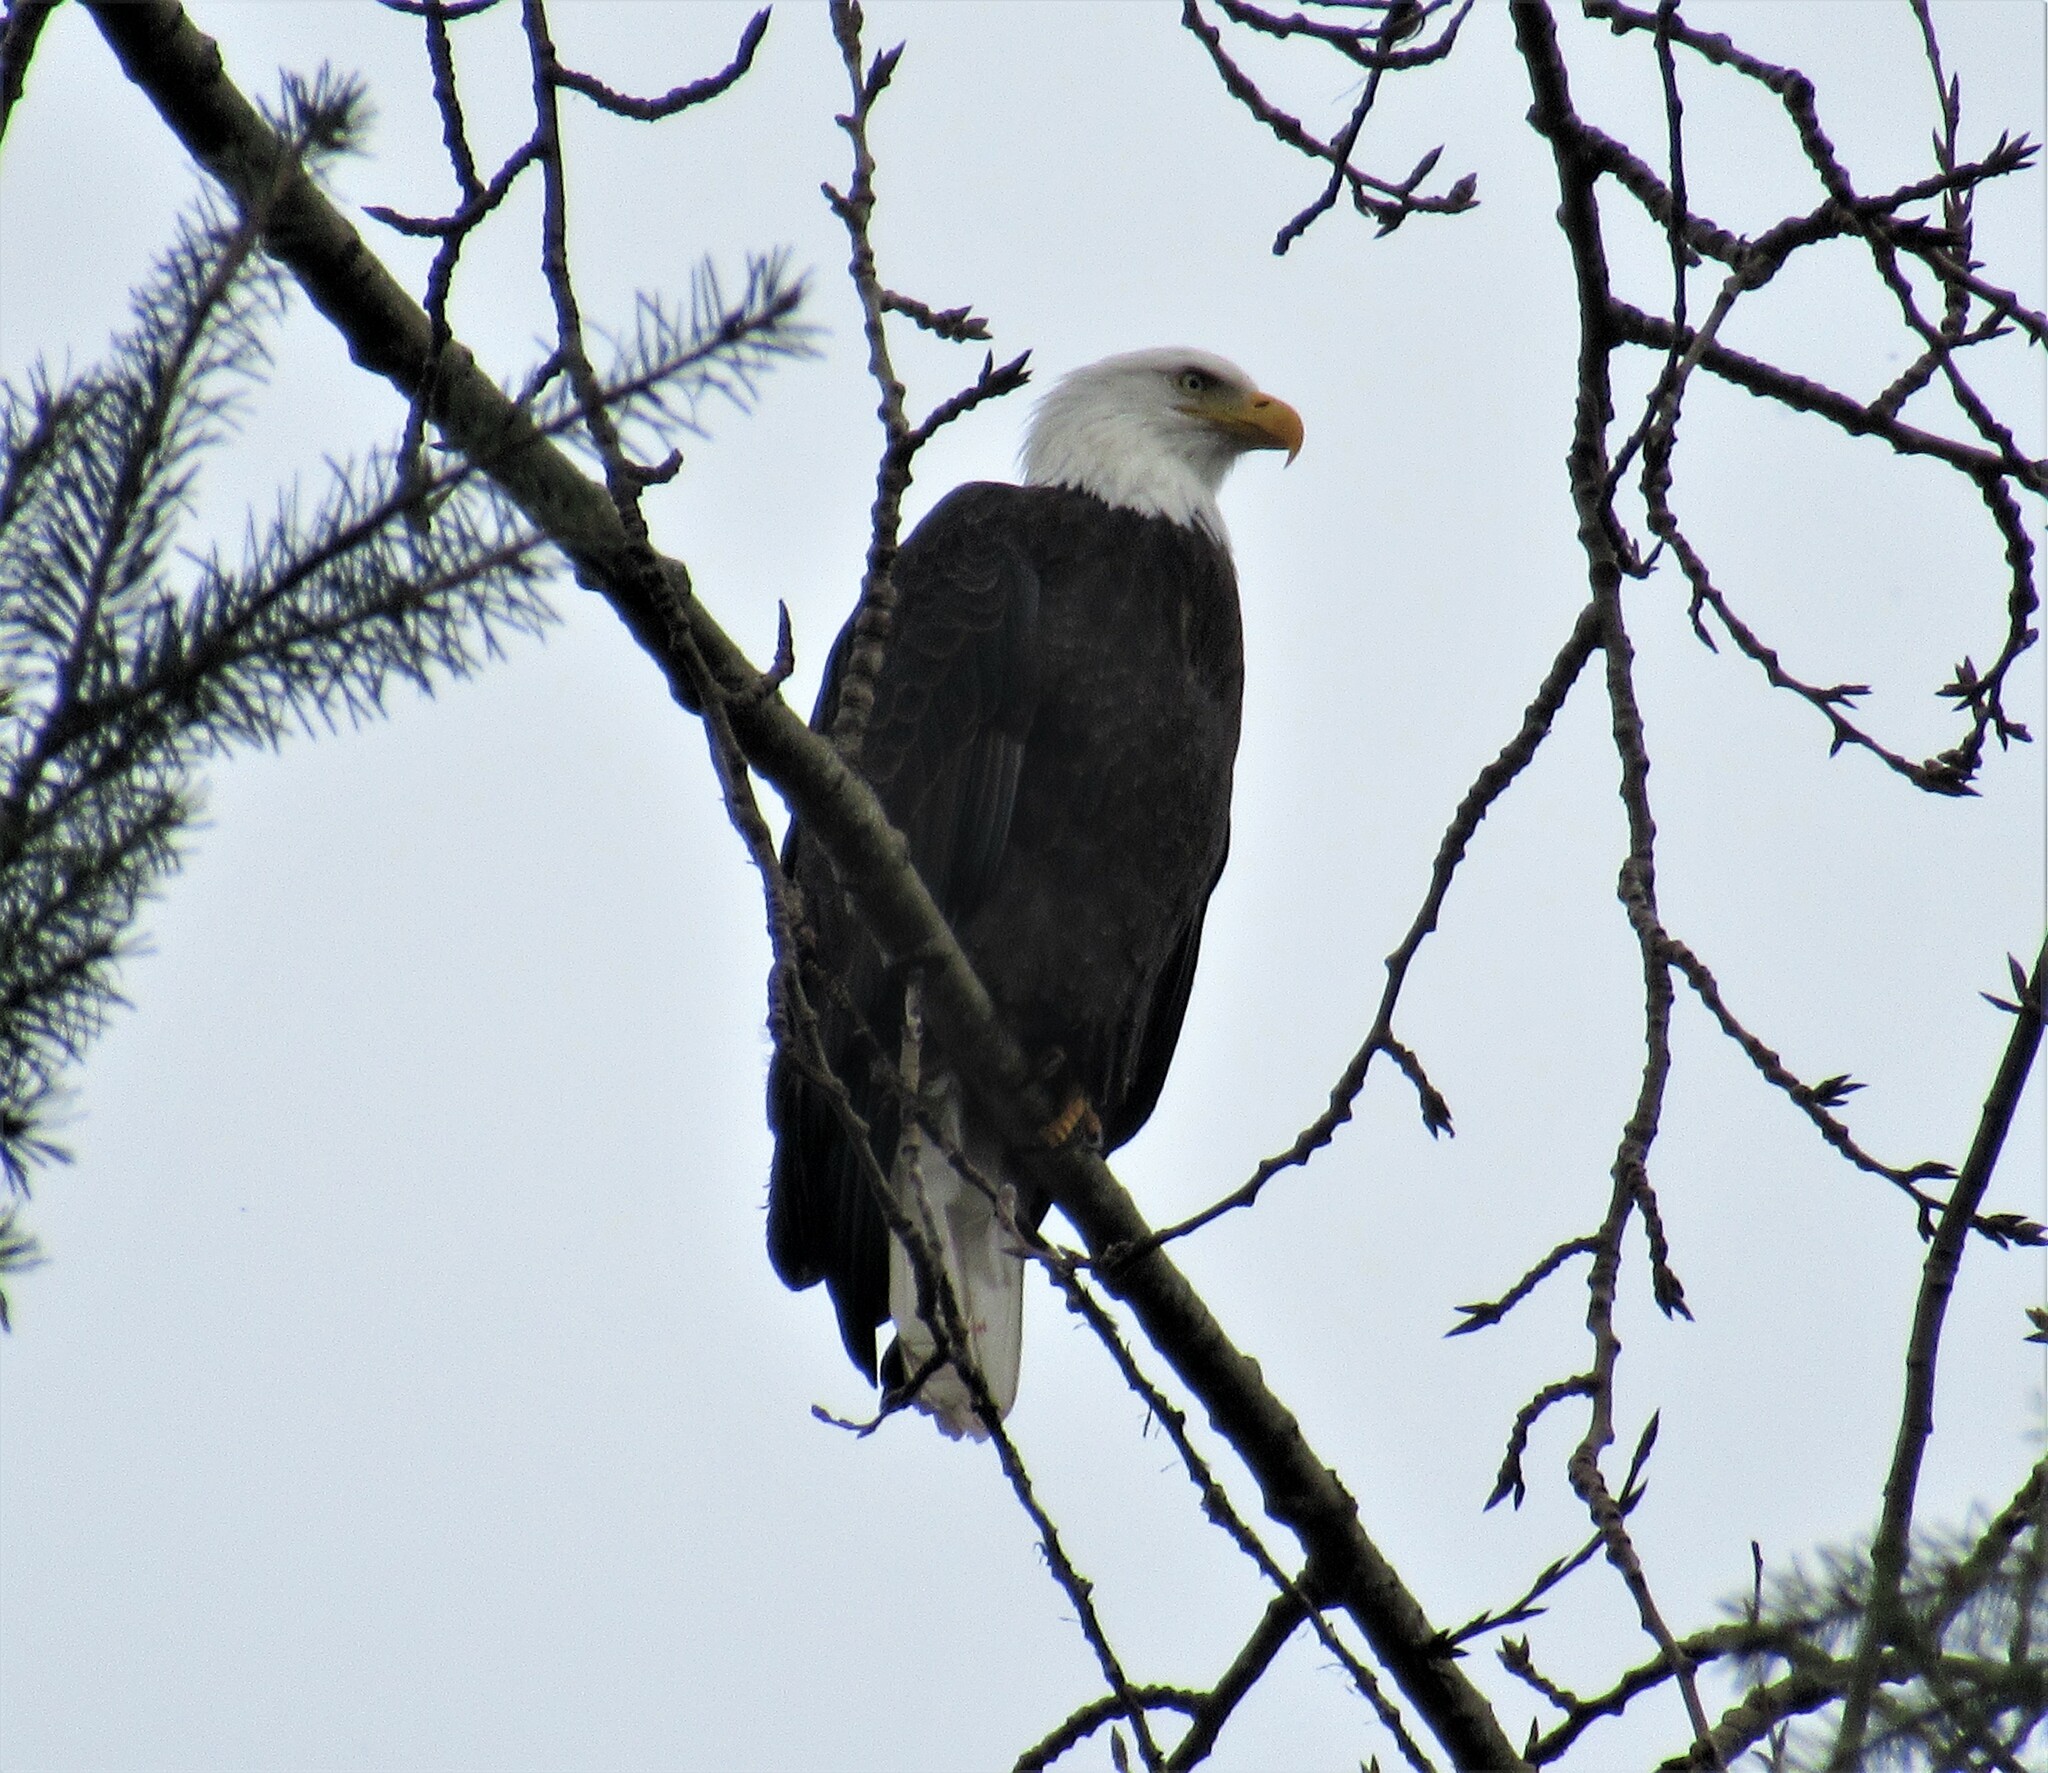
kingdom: Animalia
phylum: Chordata
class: Aves
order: Accipitriformes
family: Accipitridae
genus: Haliaeetus
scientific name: Haliaeetus leucocephalus
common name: Bald eagle
